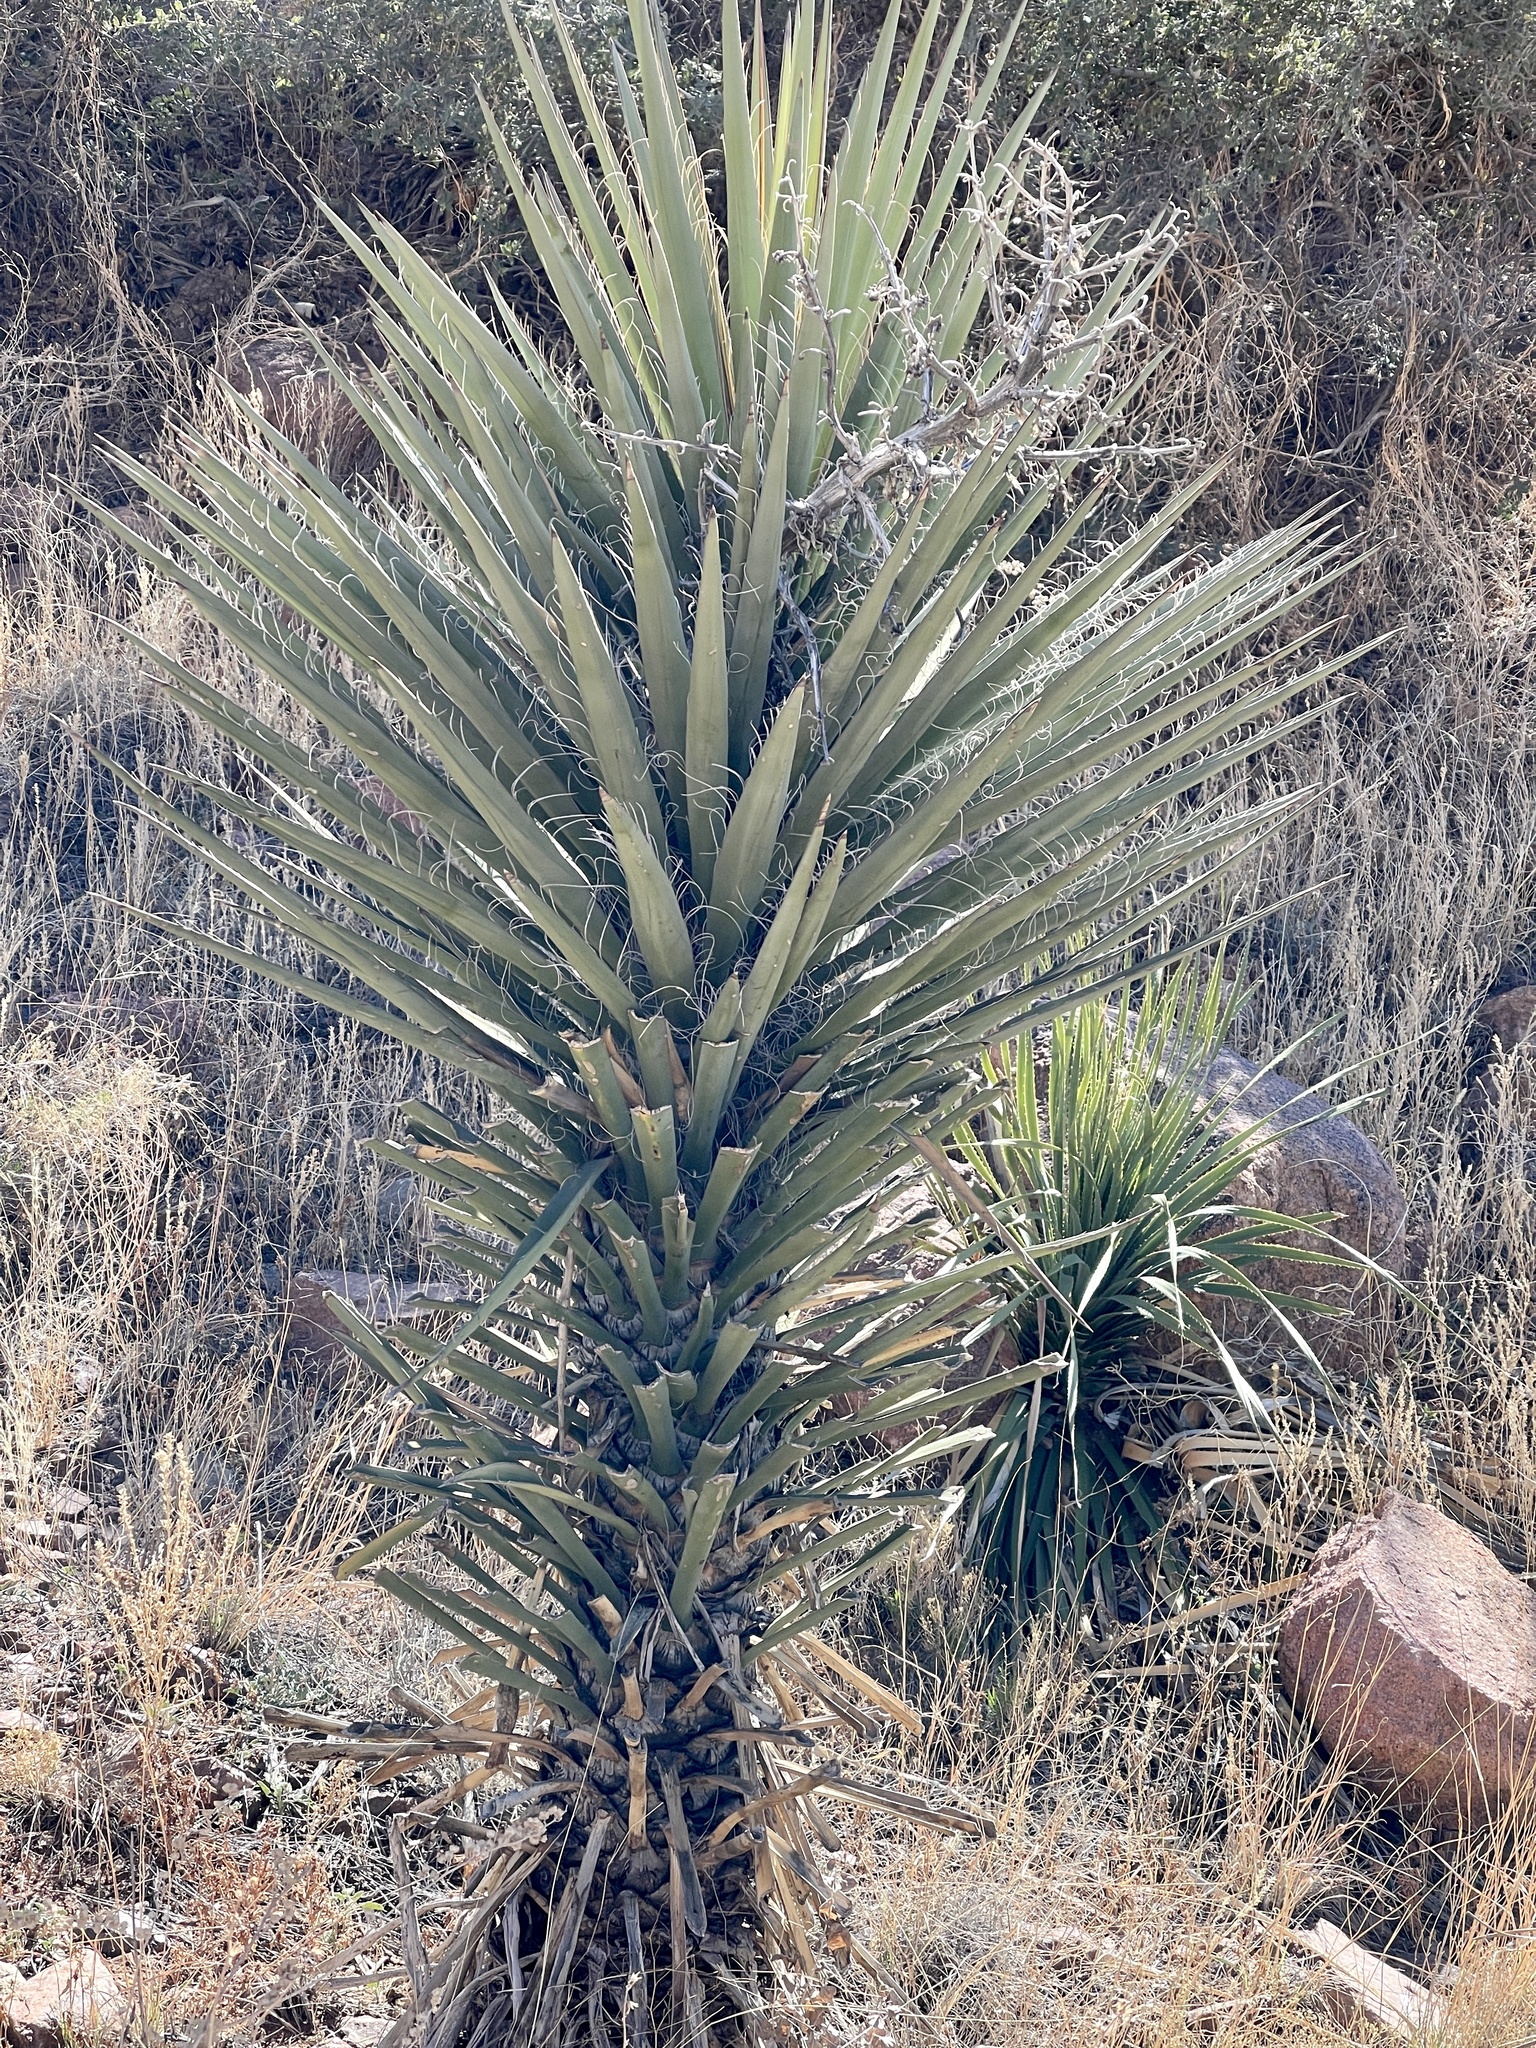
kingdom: Plantae
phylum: Tracheophyta
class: Liliopsida
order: Asparagales
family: Asparagaceae
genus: Yucca
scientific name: Yucca treculiana
